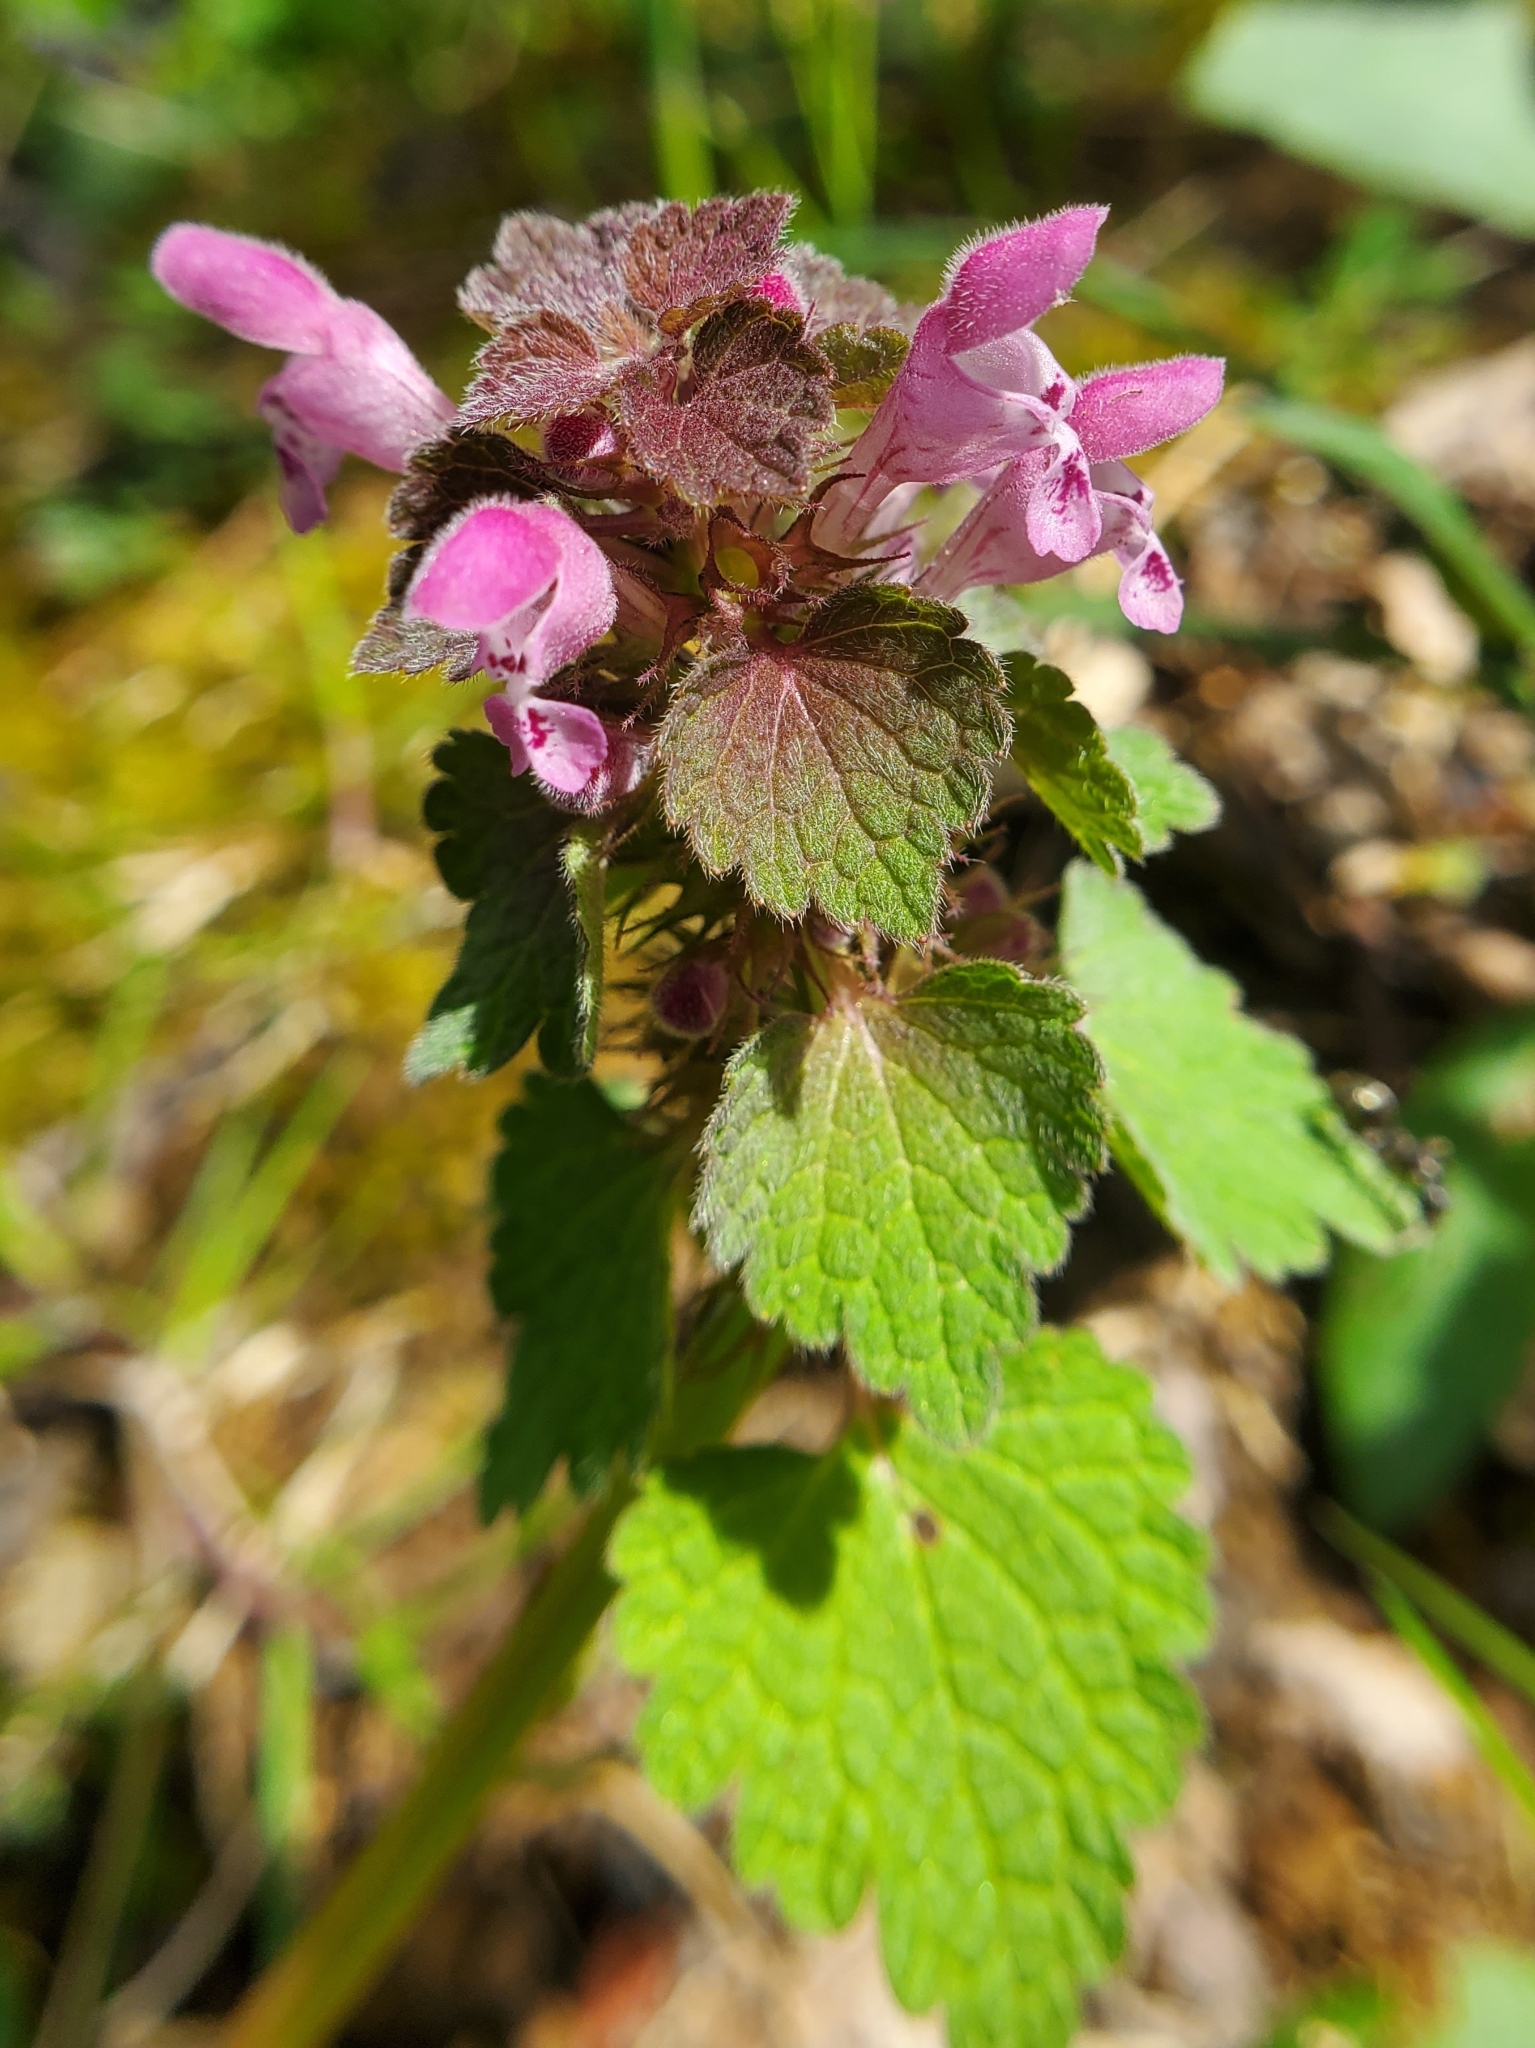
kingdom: Plantae
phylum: Tracheophyta
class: Magnoliopsida
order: Lamiales
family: Lamiaceae
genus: Lamium
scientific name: Lamium purpureum
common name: Red dead-nettle
